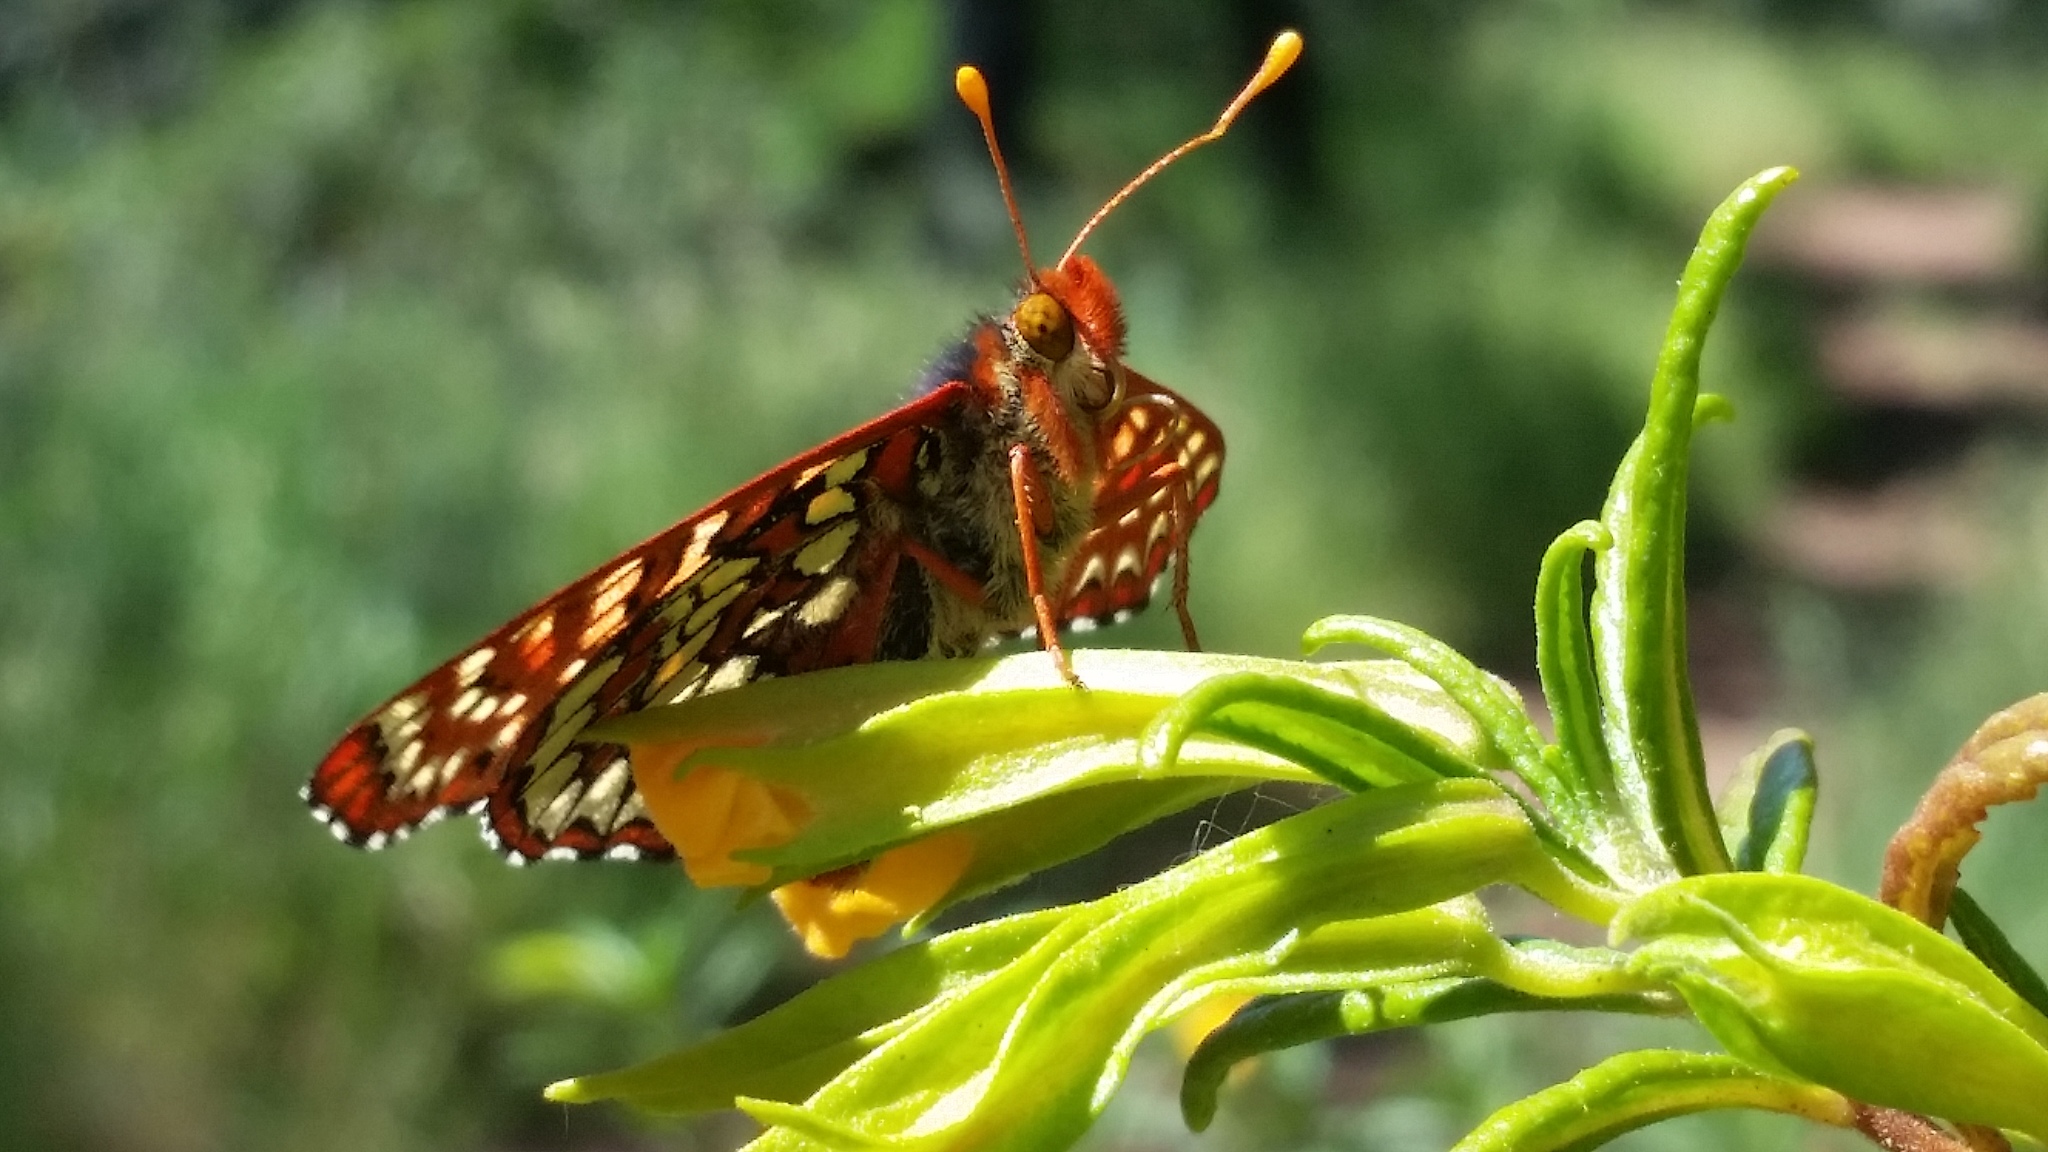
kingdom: Animalia
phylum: Arthropoda
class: Insecta
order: Lepidoptera
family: Nymphalidae
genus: Occidryas
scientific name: Occidryas chalcedona
